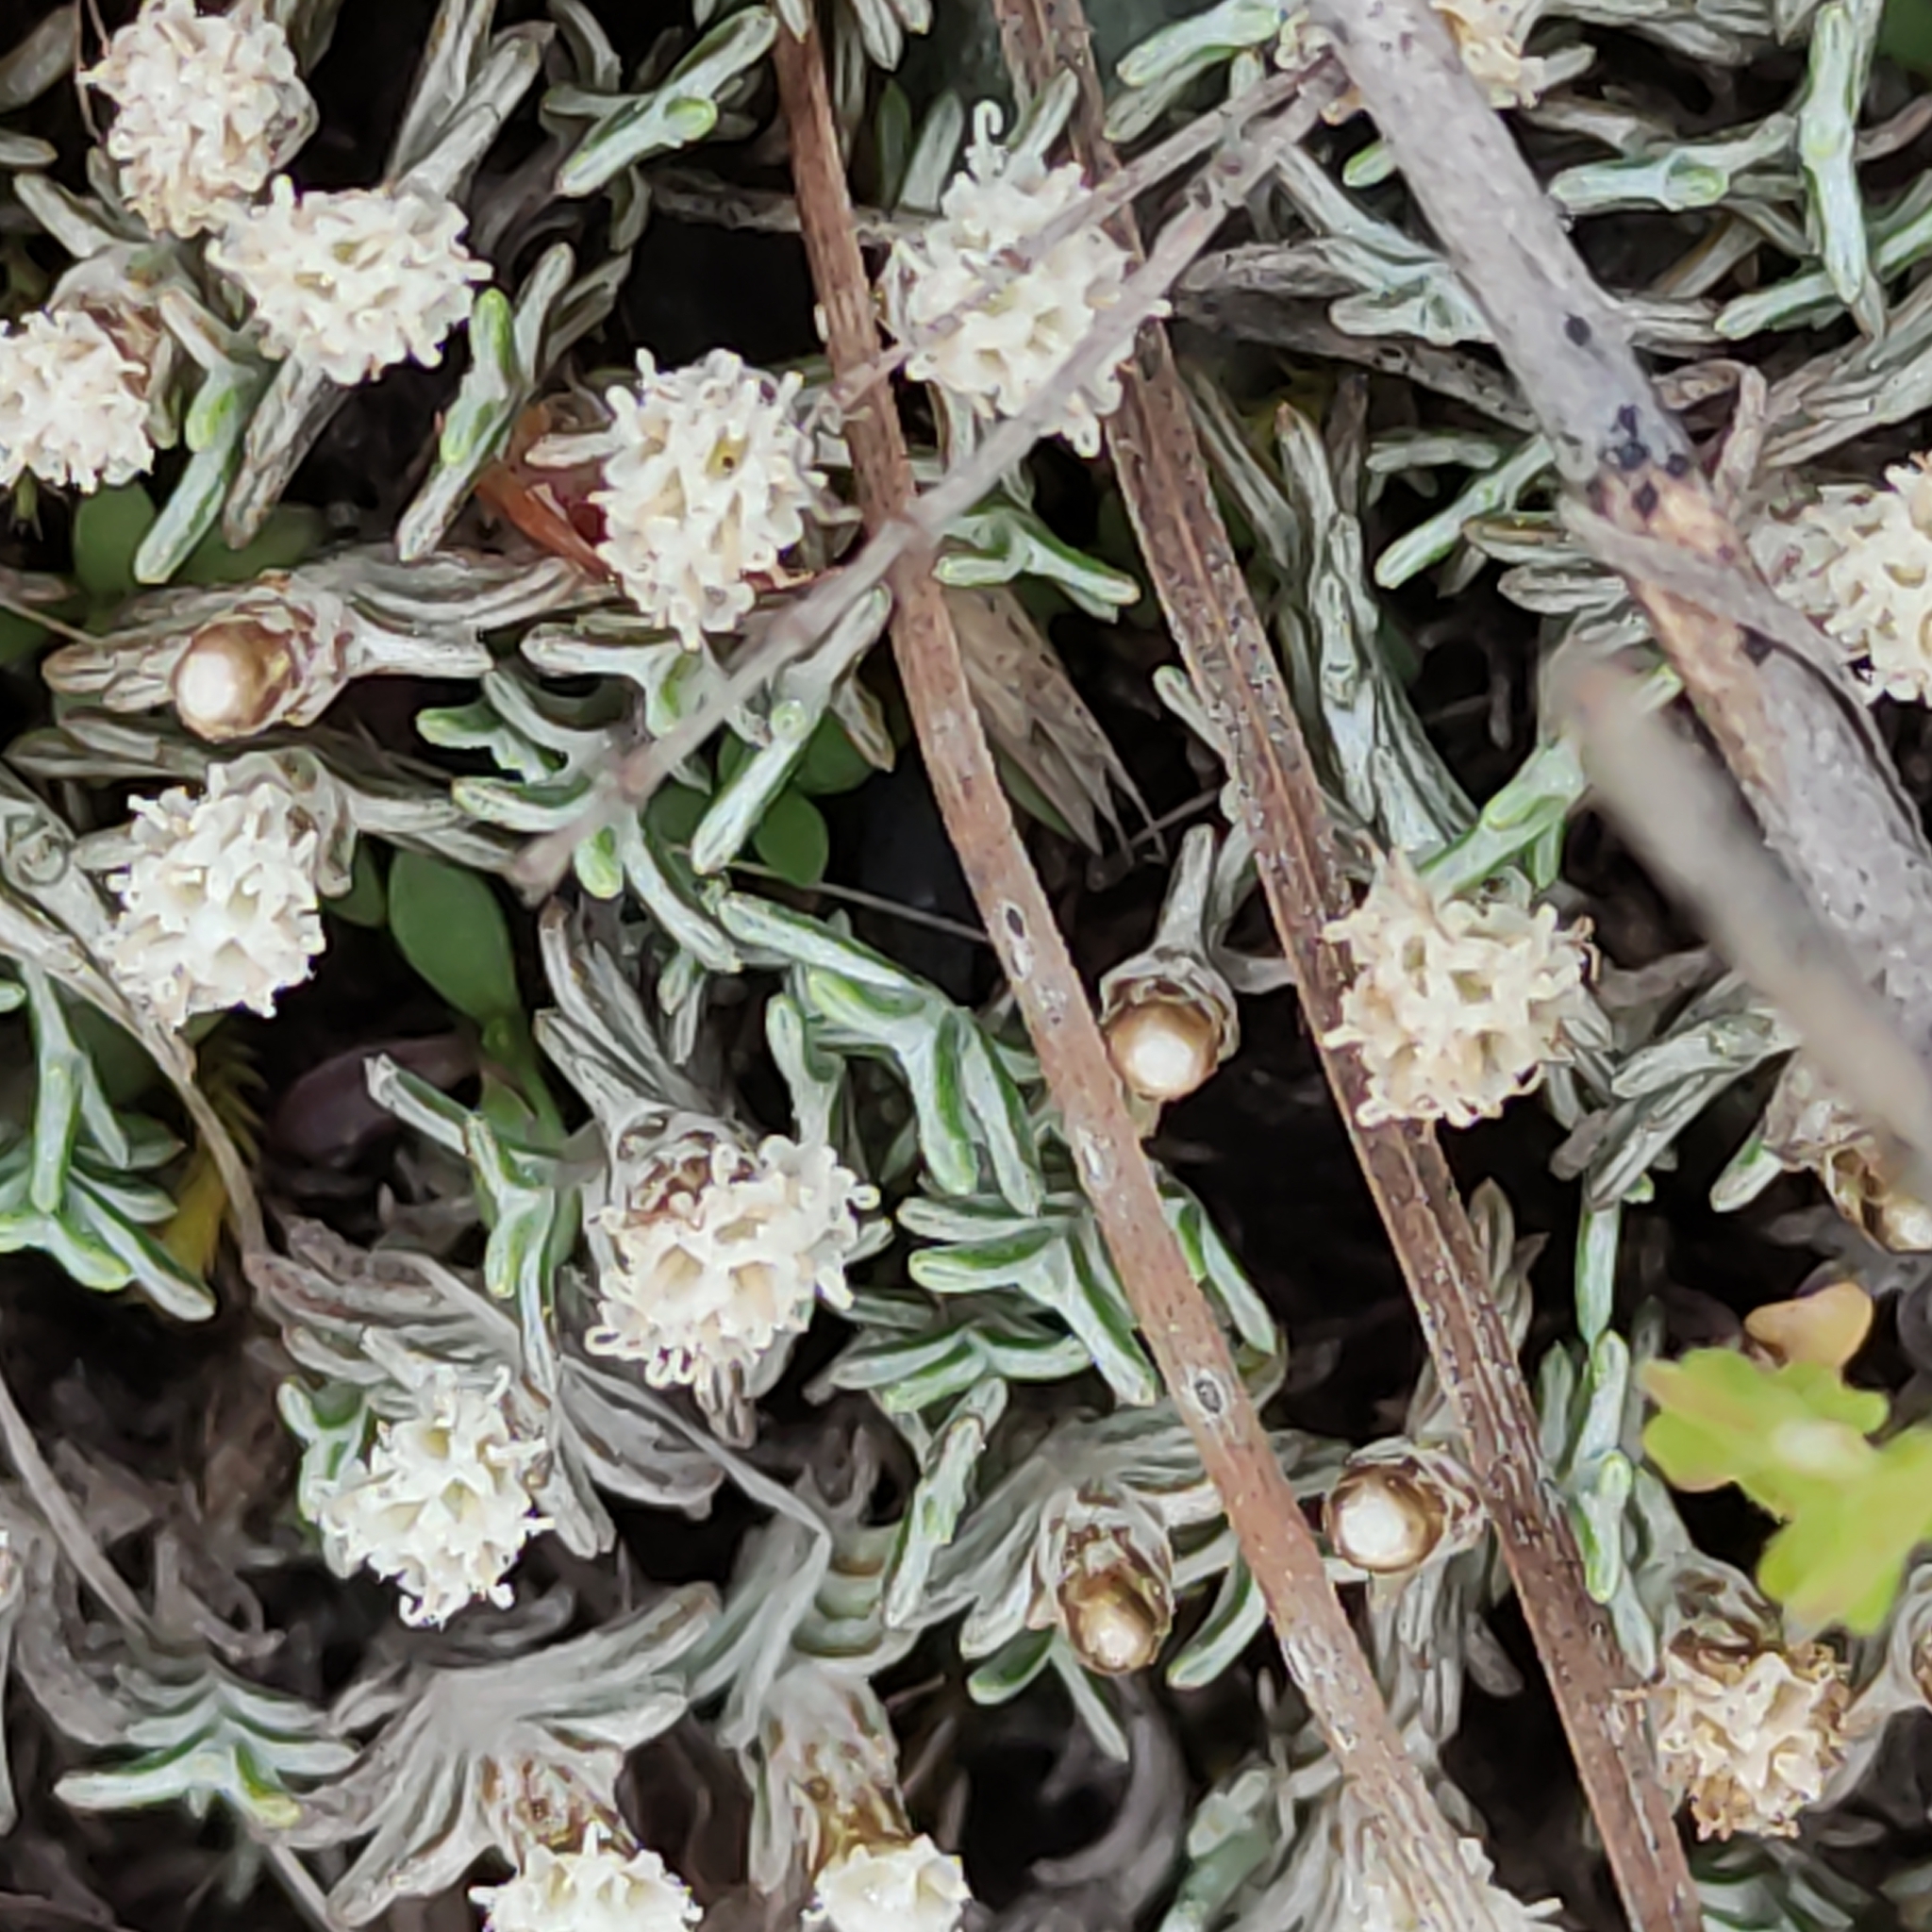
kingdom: Plantae
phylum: Tracheophyta
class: Magnoliopsida
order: Asterales
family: Asteraceae
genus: Raoulia
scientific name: Raoulia monroi
